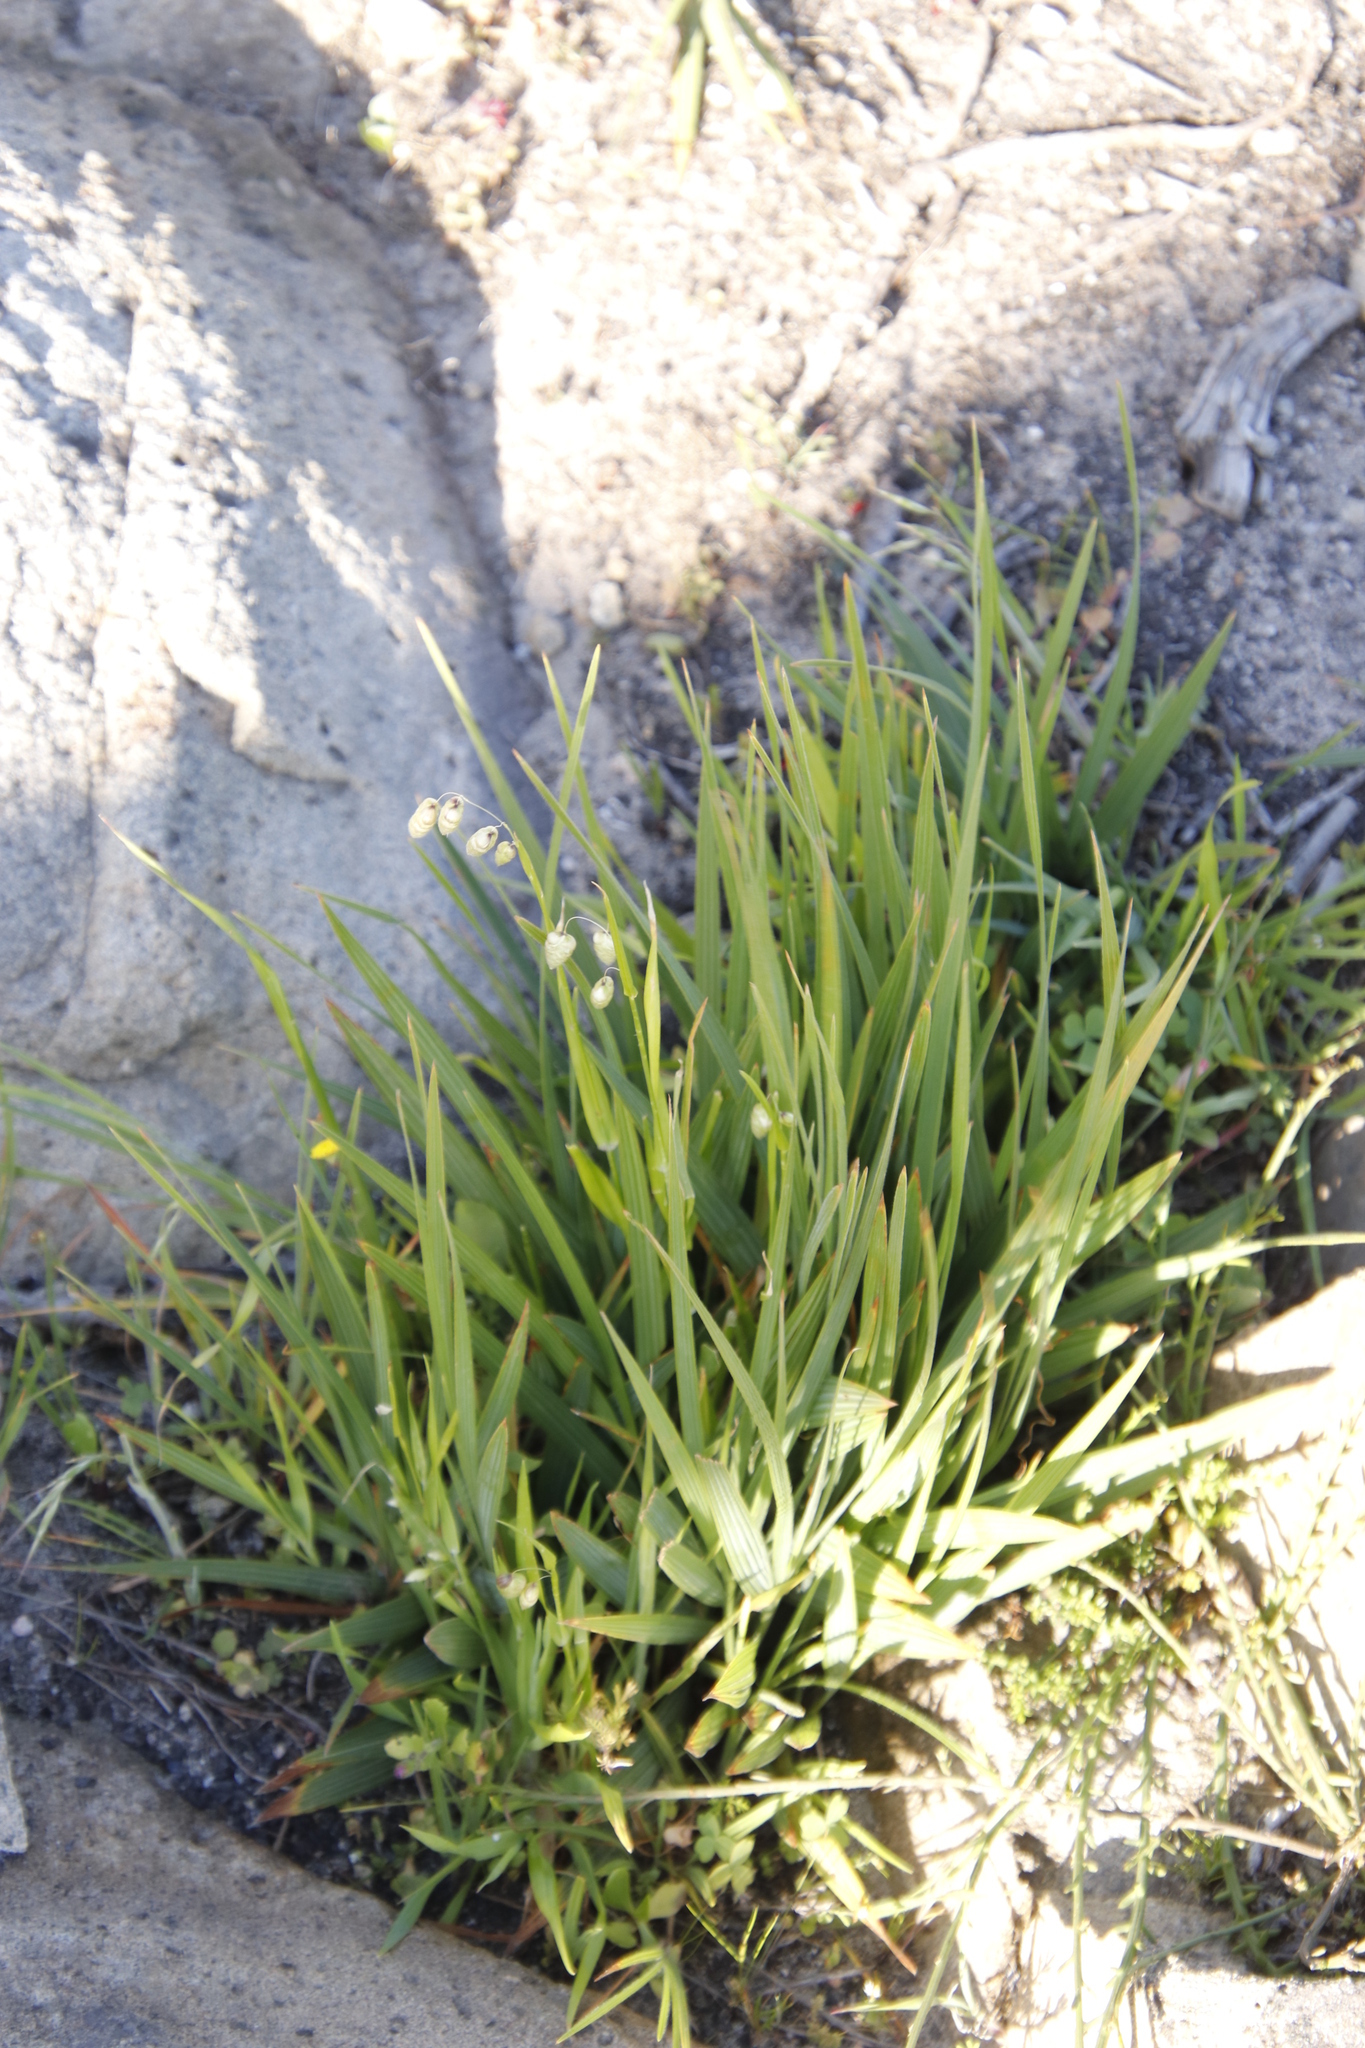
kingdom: Plantae
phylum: Tracheophyta
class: Liliopsida
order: Poales
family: Poaceae
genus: Briza
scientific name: Briza maxima
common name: Big quakinggrass
